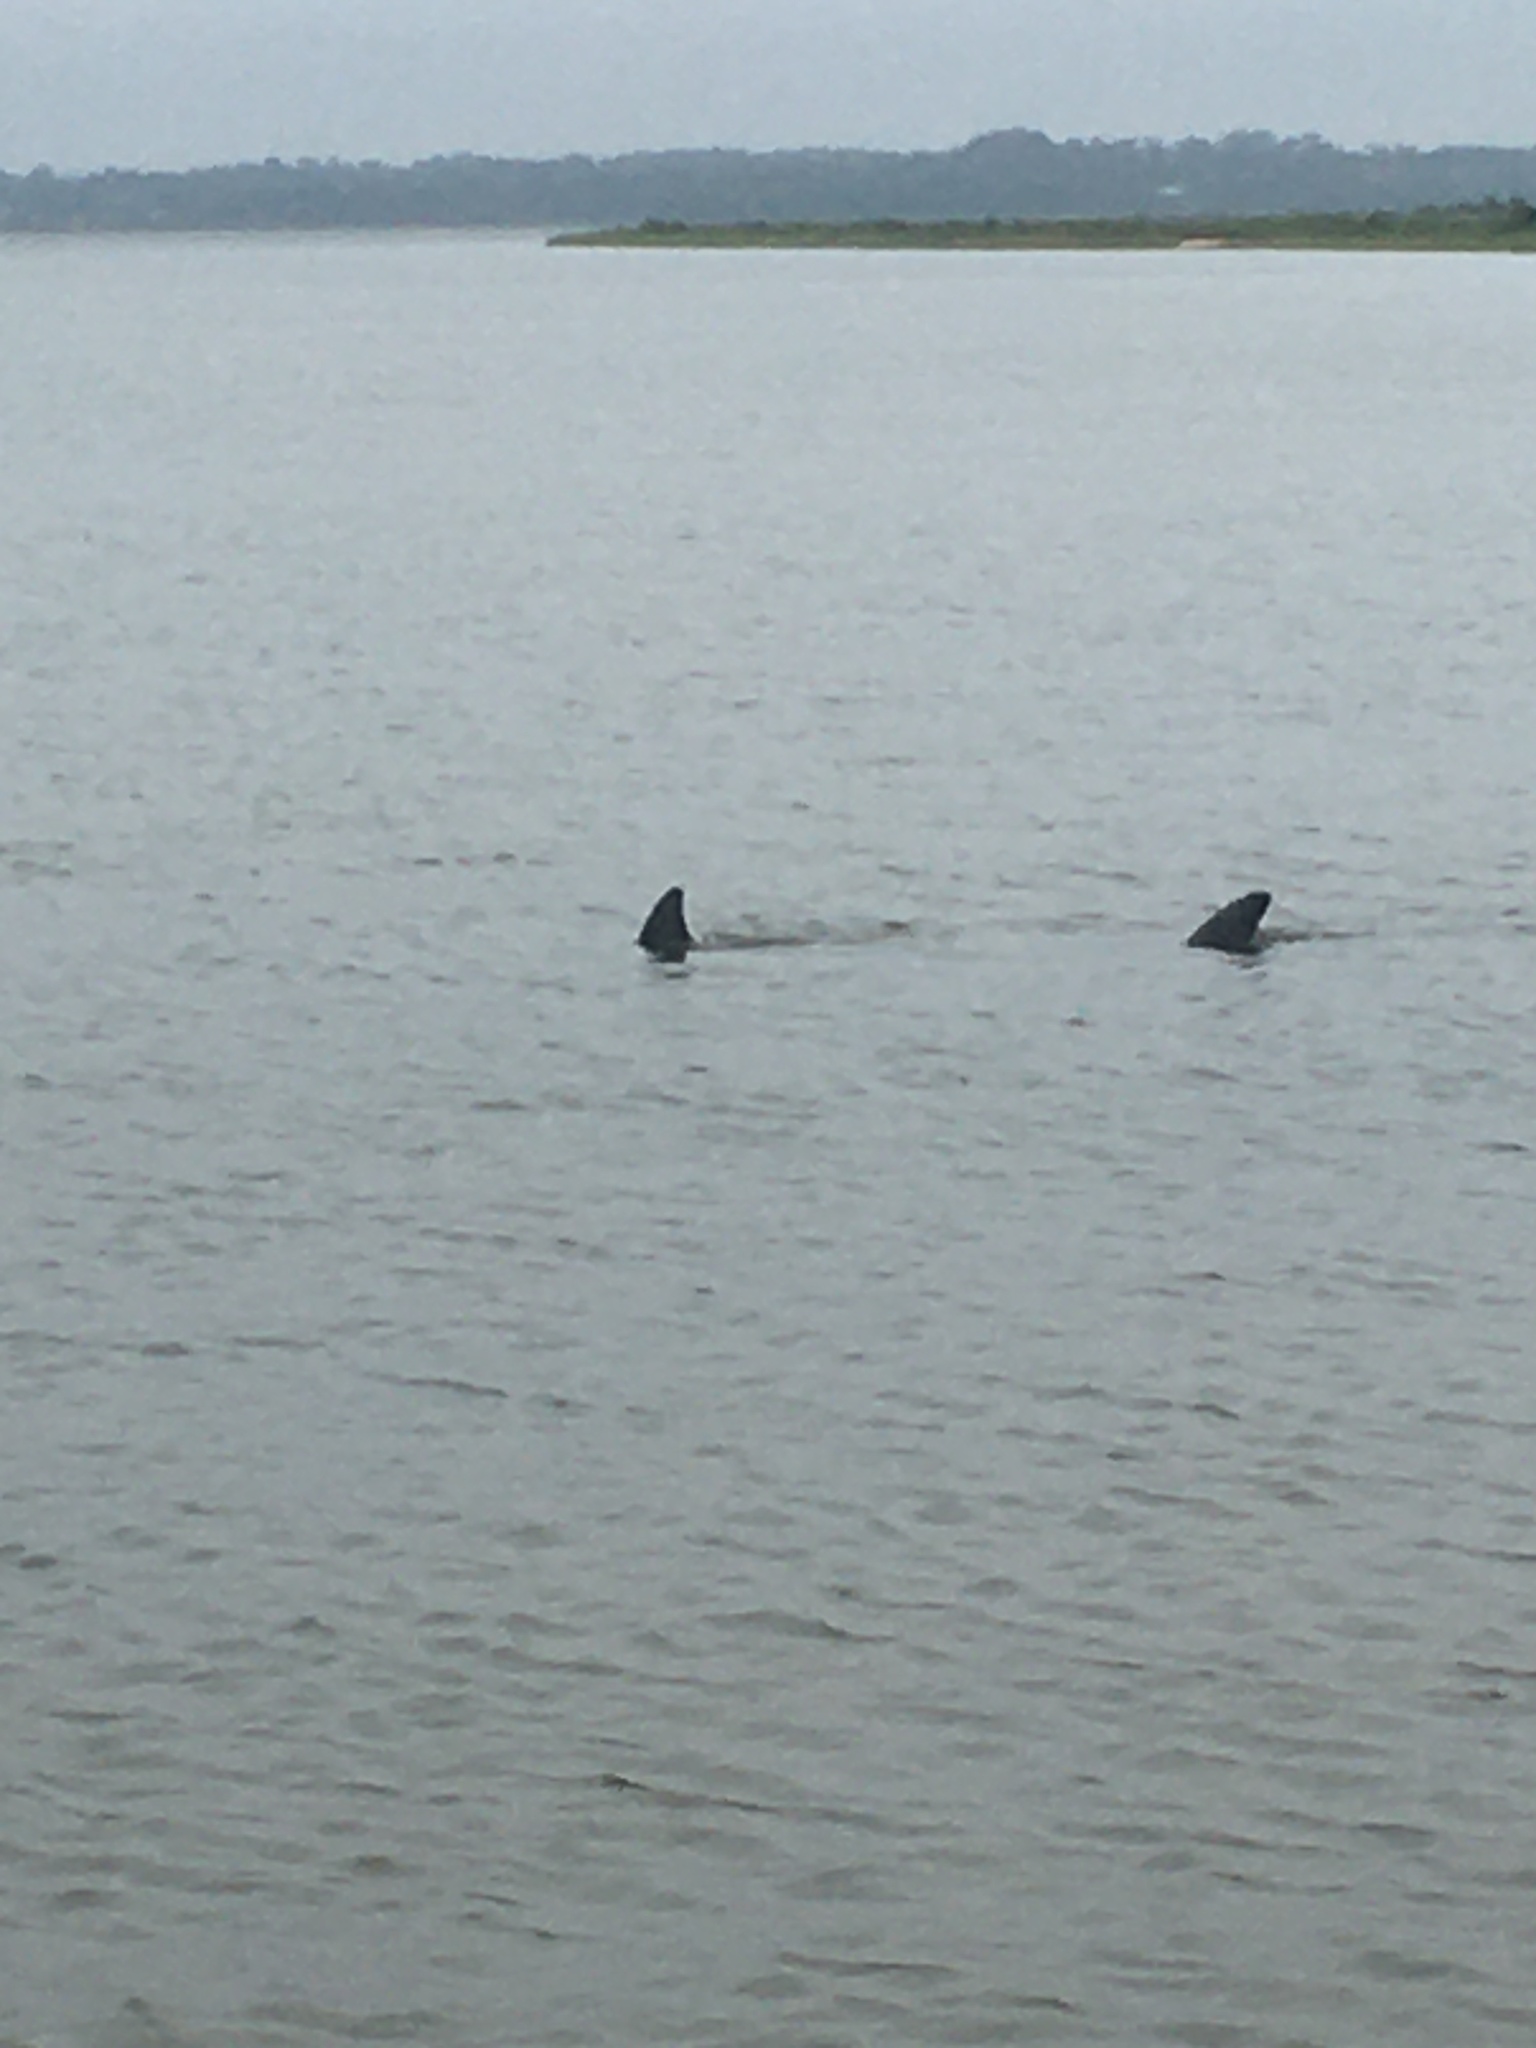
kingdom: Animalia
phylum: Chordata
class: Mammalia
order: Cetacea
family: Delphinidae
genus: Tursiops
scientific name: Tursiops truncatus
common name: Bottlenose dolphin
